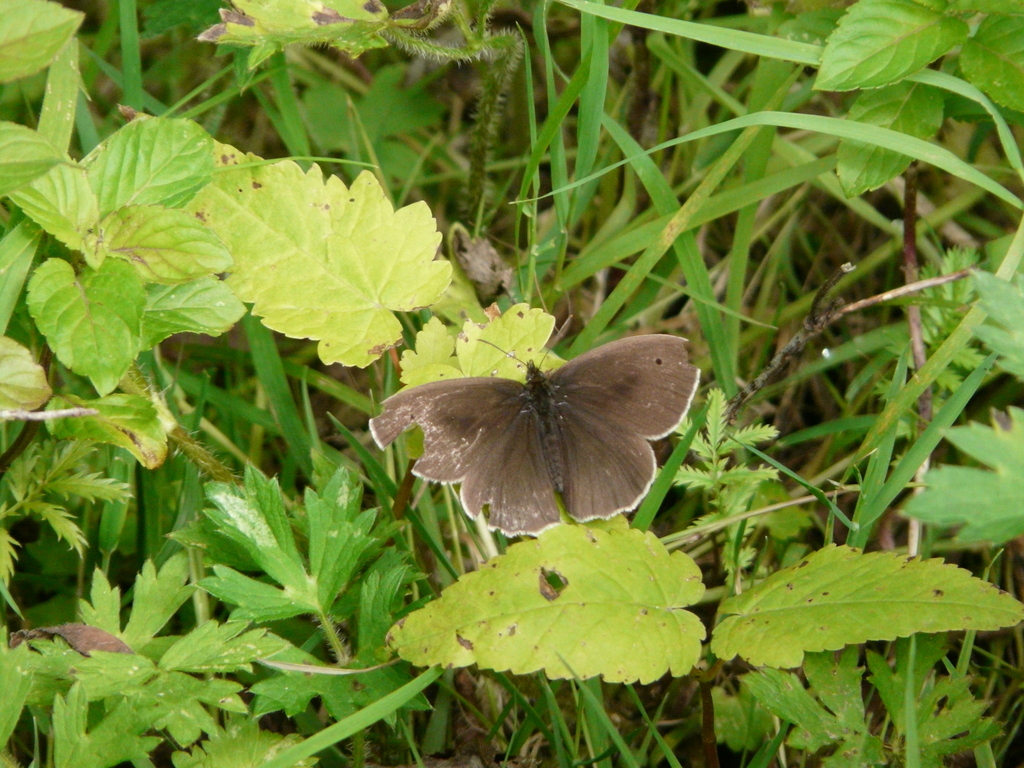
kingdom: Animalia
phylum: Arthropoda
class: Insecta
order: Lepidoptera
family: Nymphalidae
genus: Maniola
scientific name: Maniola jurtina
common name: Meadow brown
